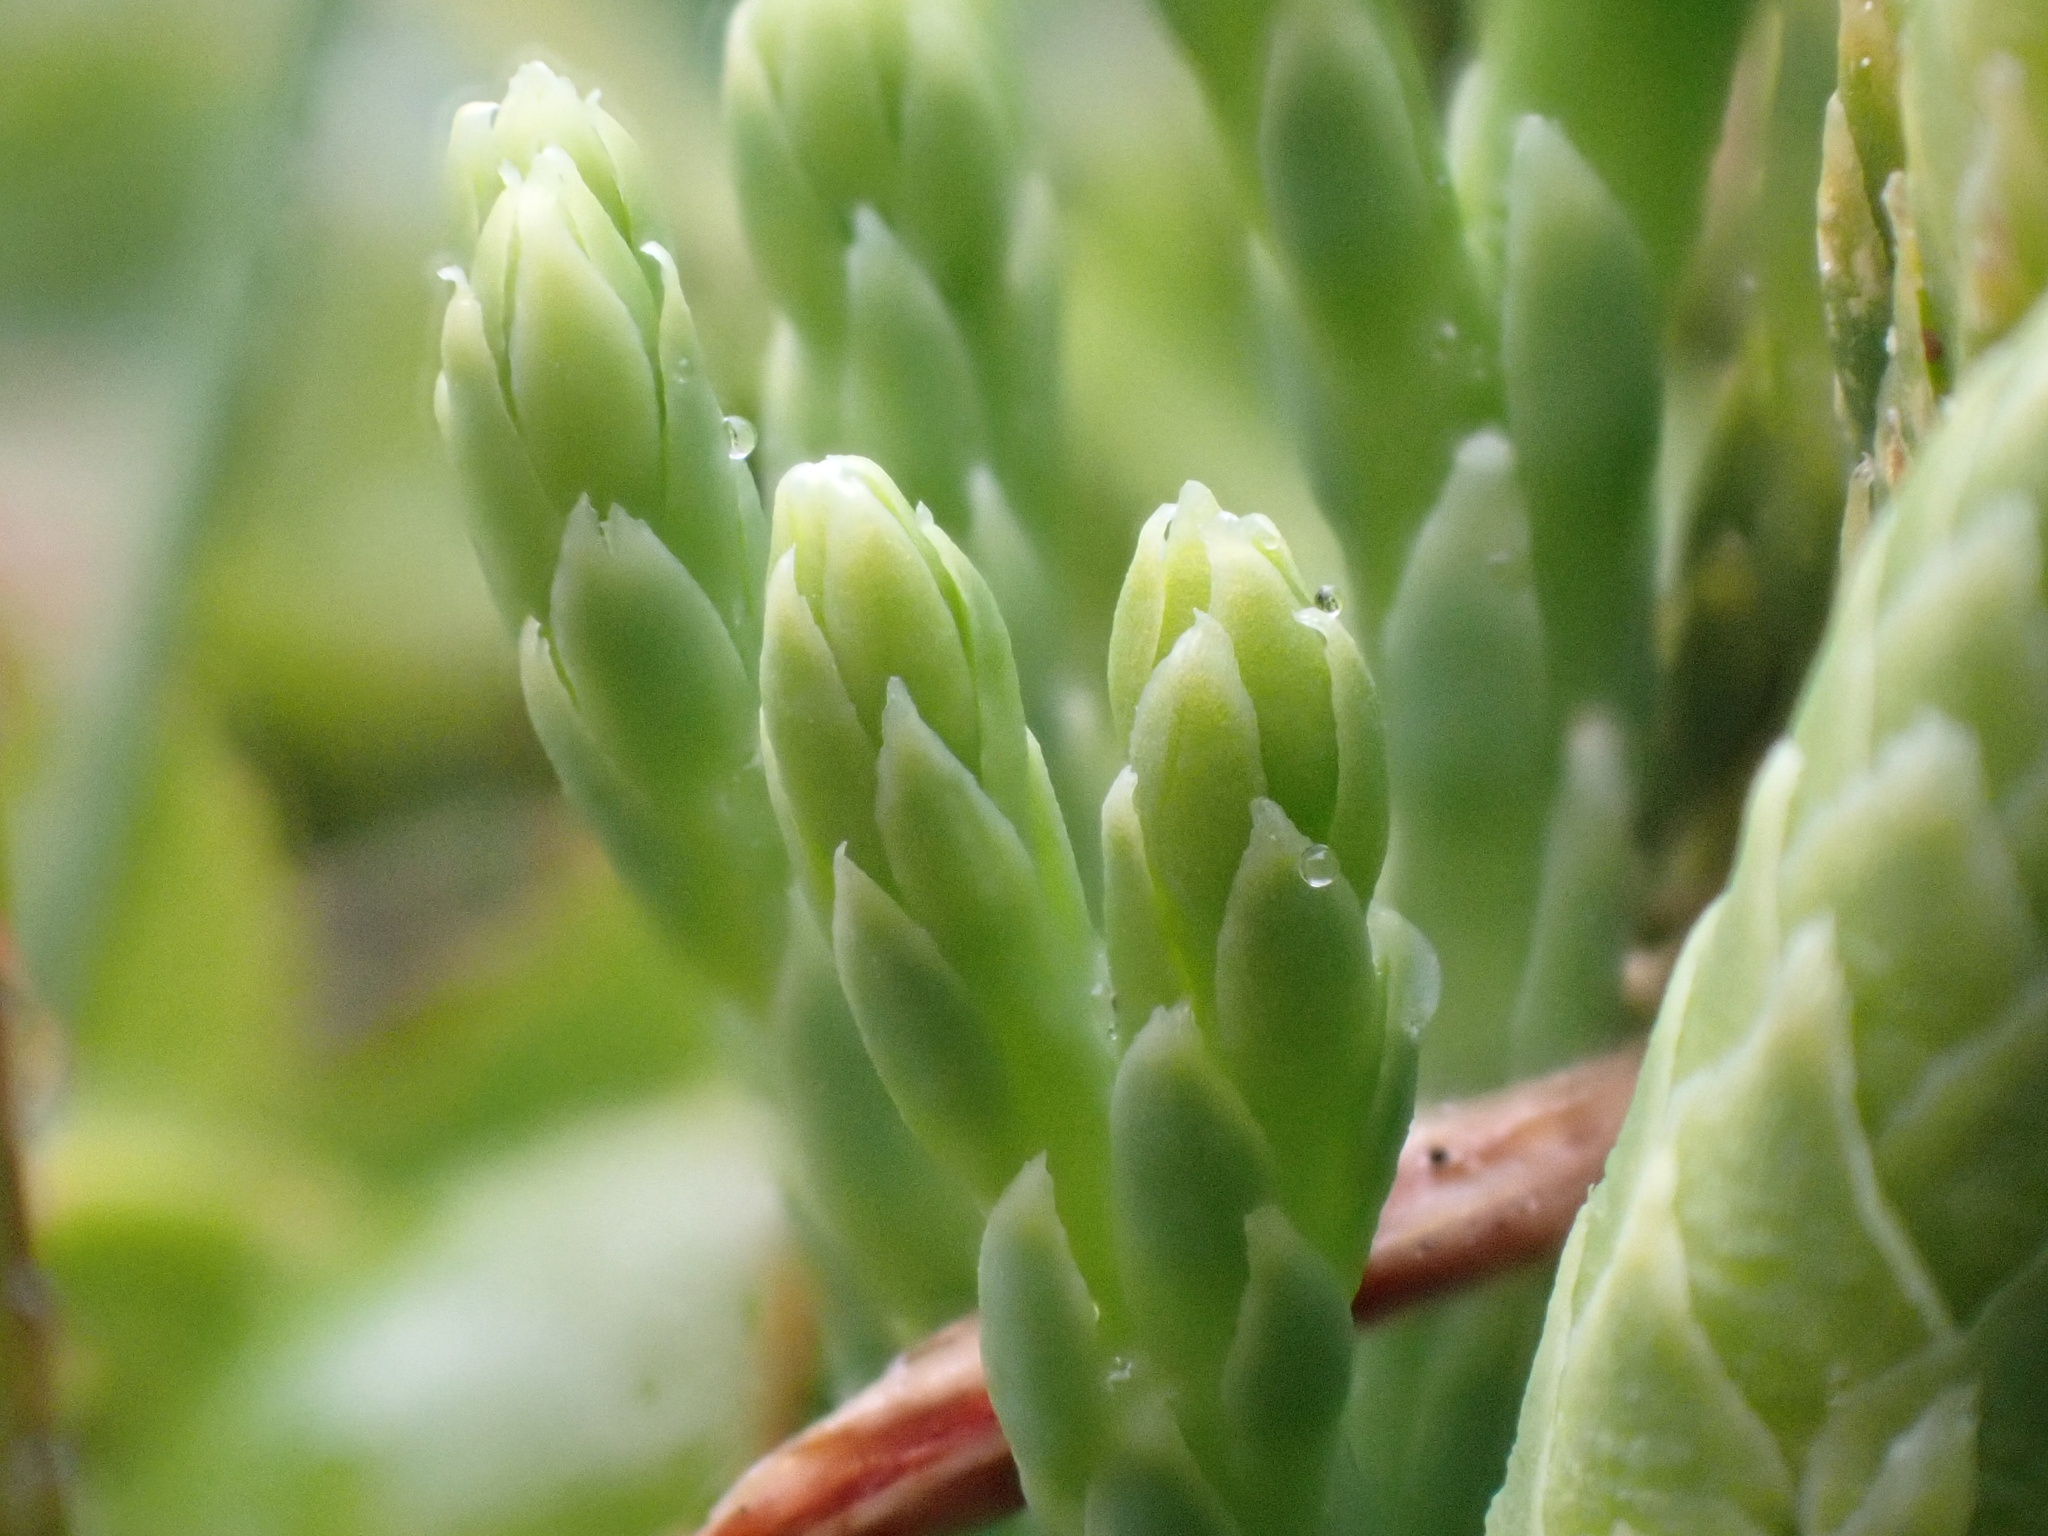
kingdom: Plantae
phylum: Tracheophyta
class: Lycopodiopsida
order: Lycopodiales
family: Lycopodiaceae
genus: Diphasiastrum
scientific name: Diphasiastrum alpinum
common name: Alpine clubmoss
